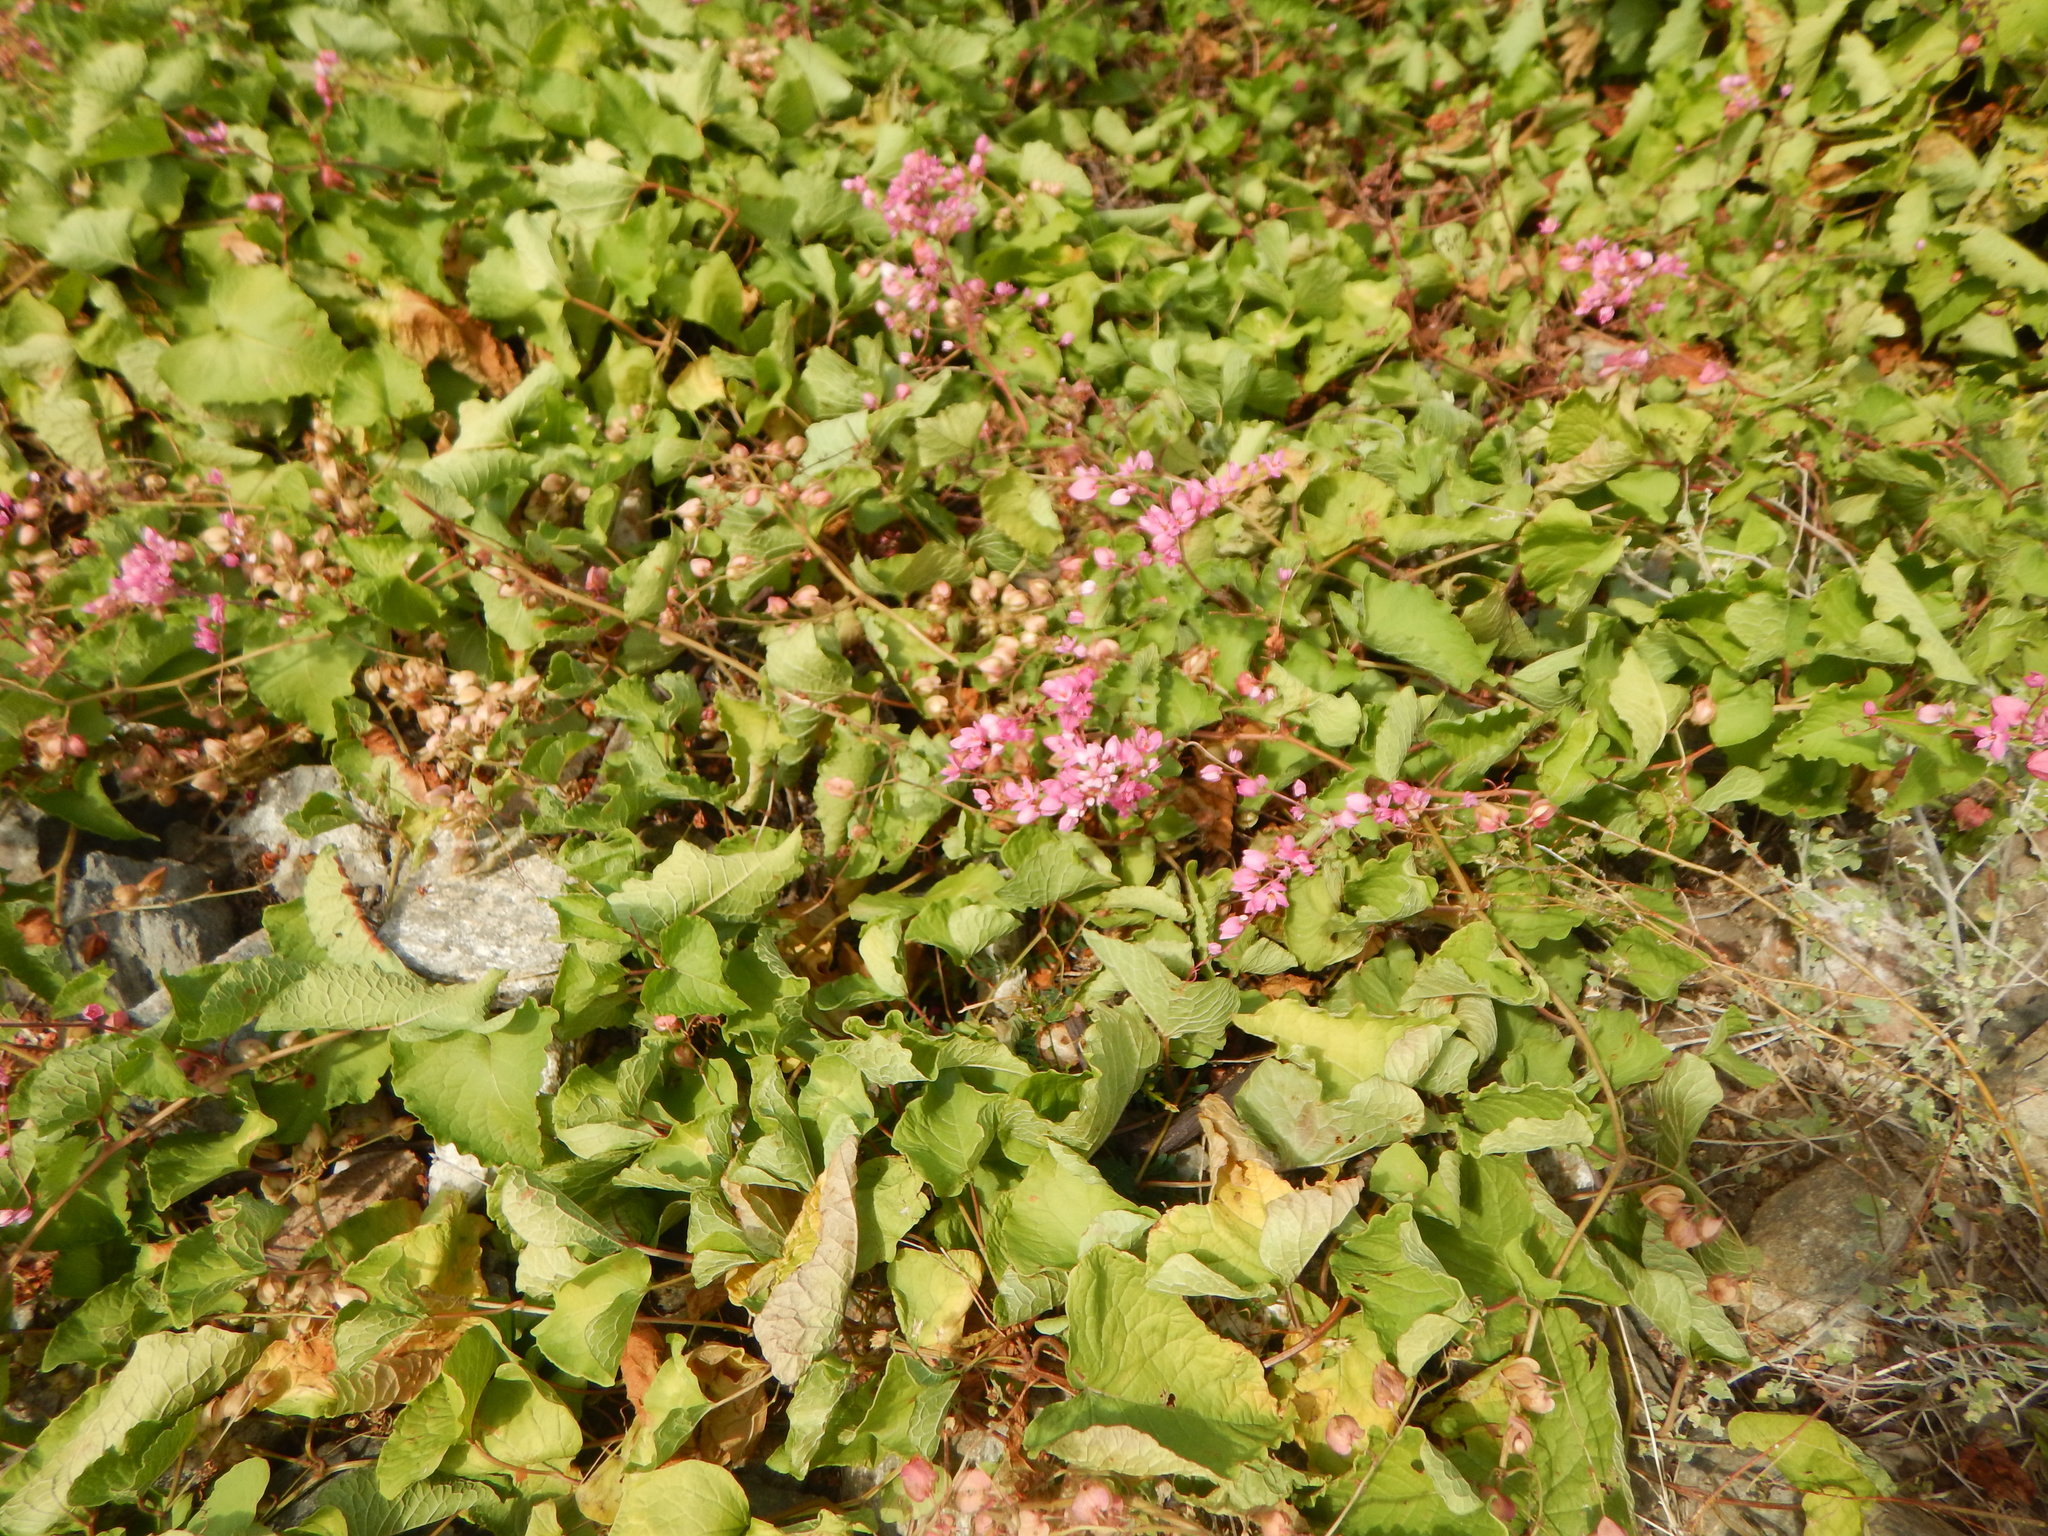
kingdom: Plantae
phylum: Tracheophyta
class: Magnoliopsida
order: Caryophyllales
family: Polygonaceae
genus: Antigonon
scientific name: Antigonon leptopus
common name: Coral vine
